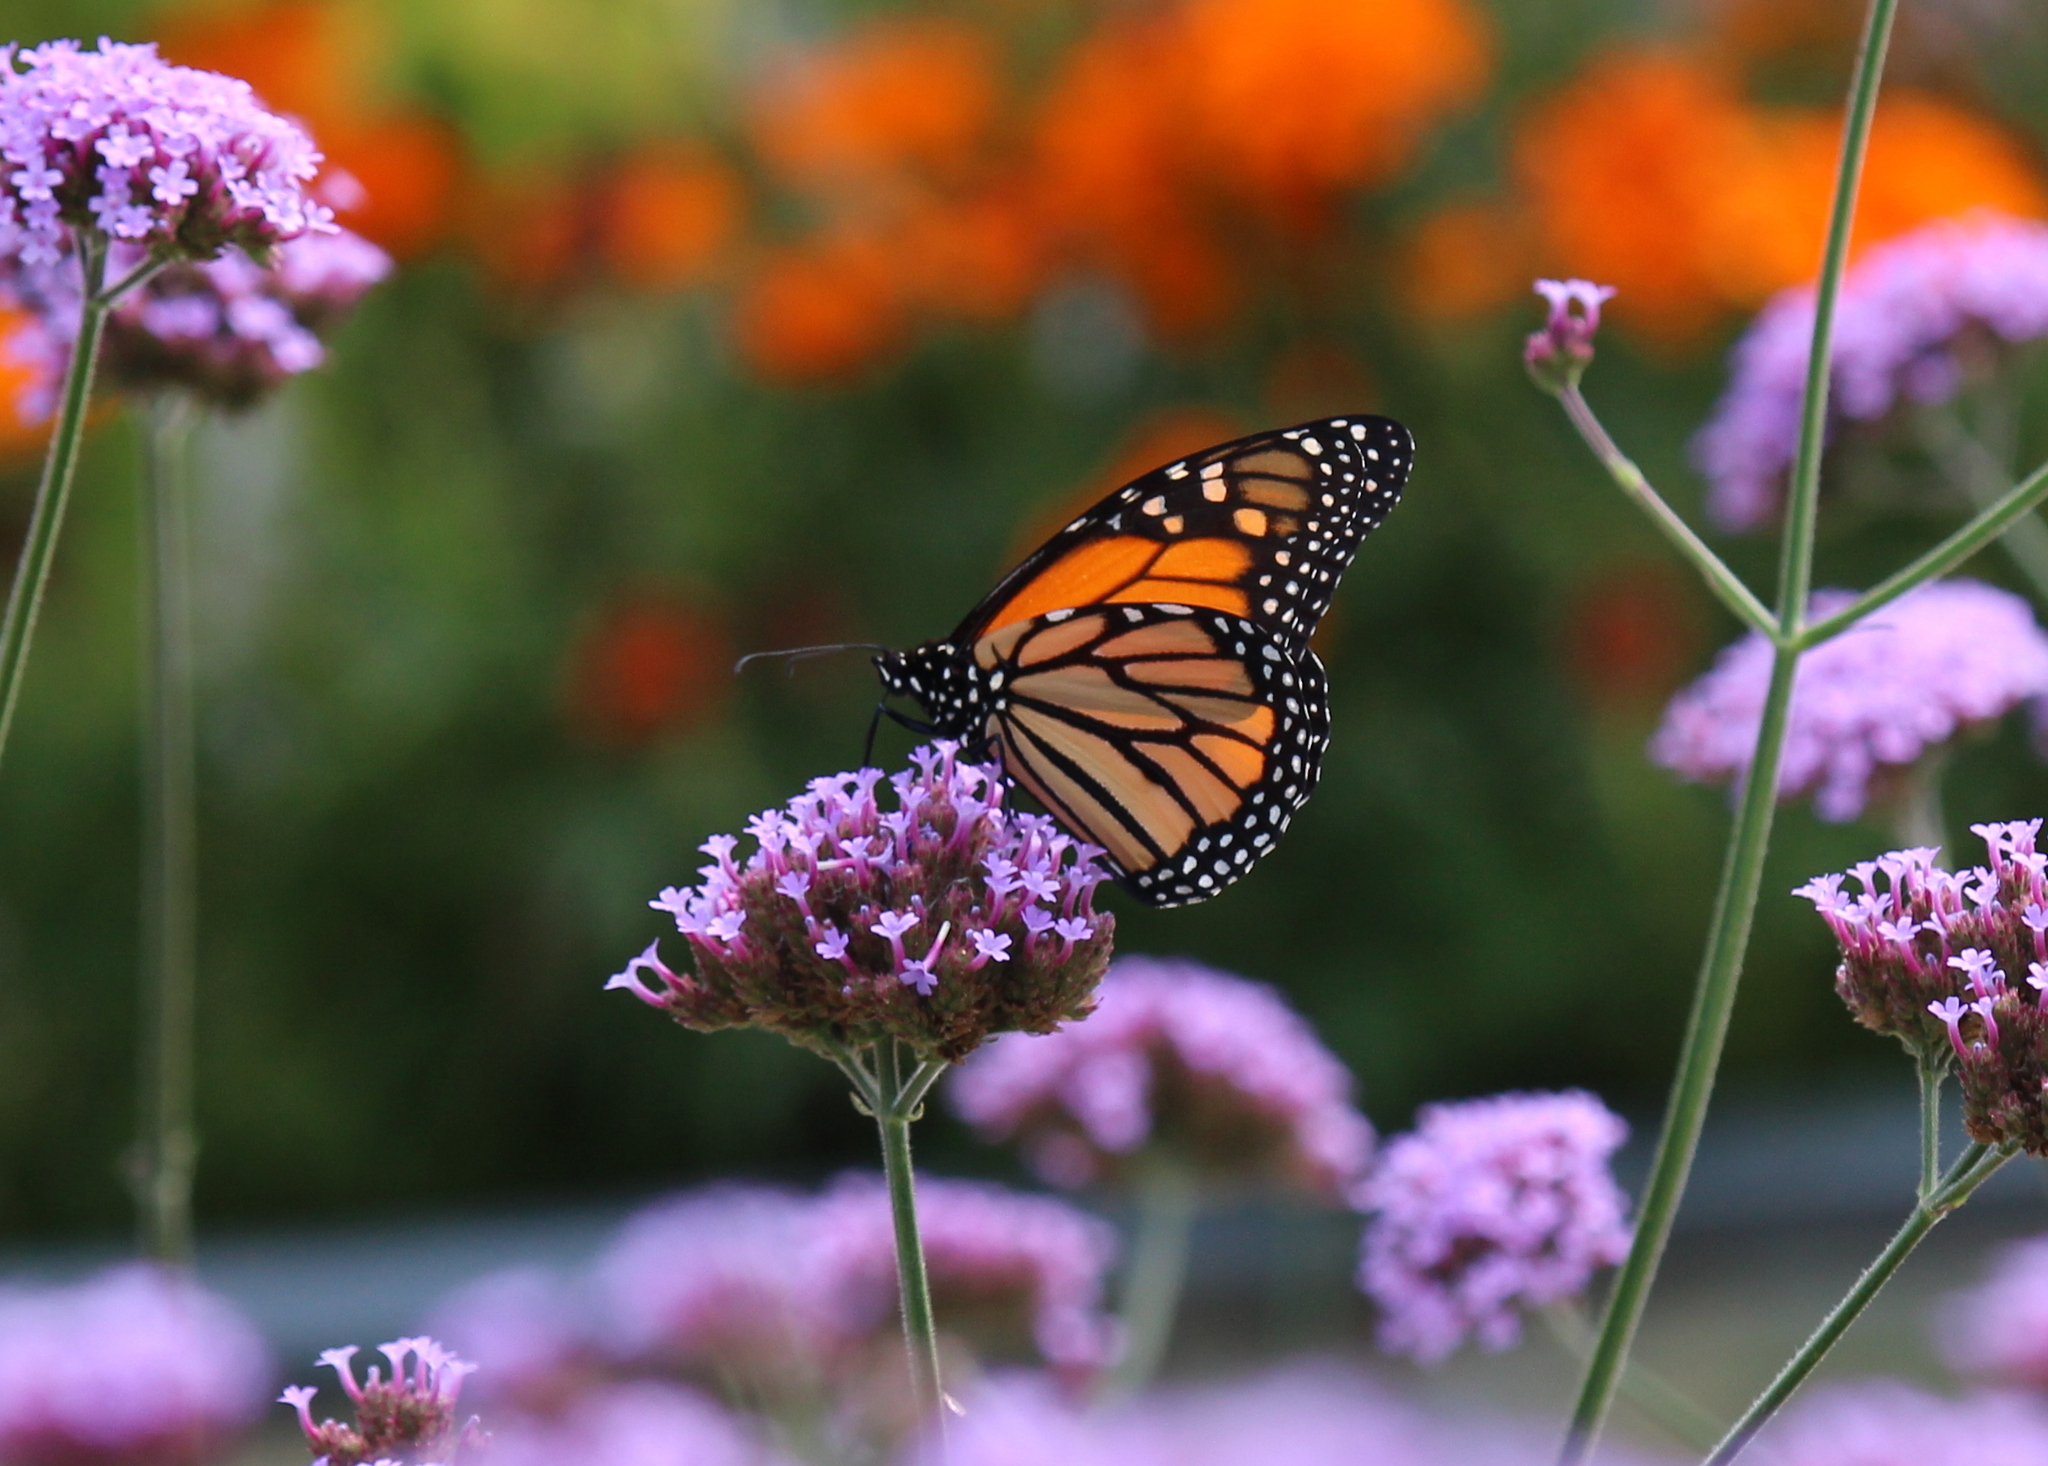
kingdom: Animalia
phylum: Arthropoda
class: Insecta
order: Lepidoptera
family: Nymphalidae
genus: Danaus
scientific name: Danaus plexippus
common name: Monarch
